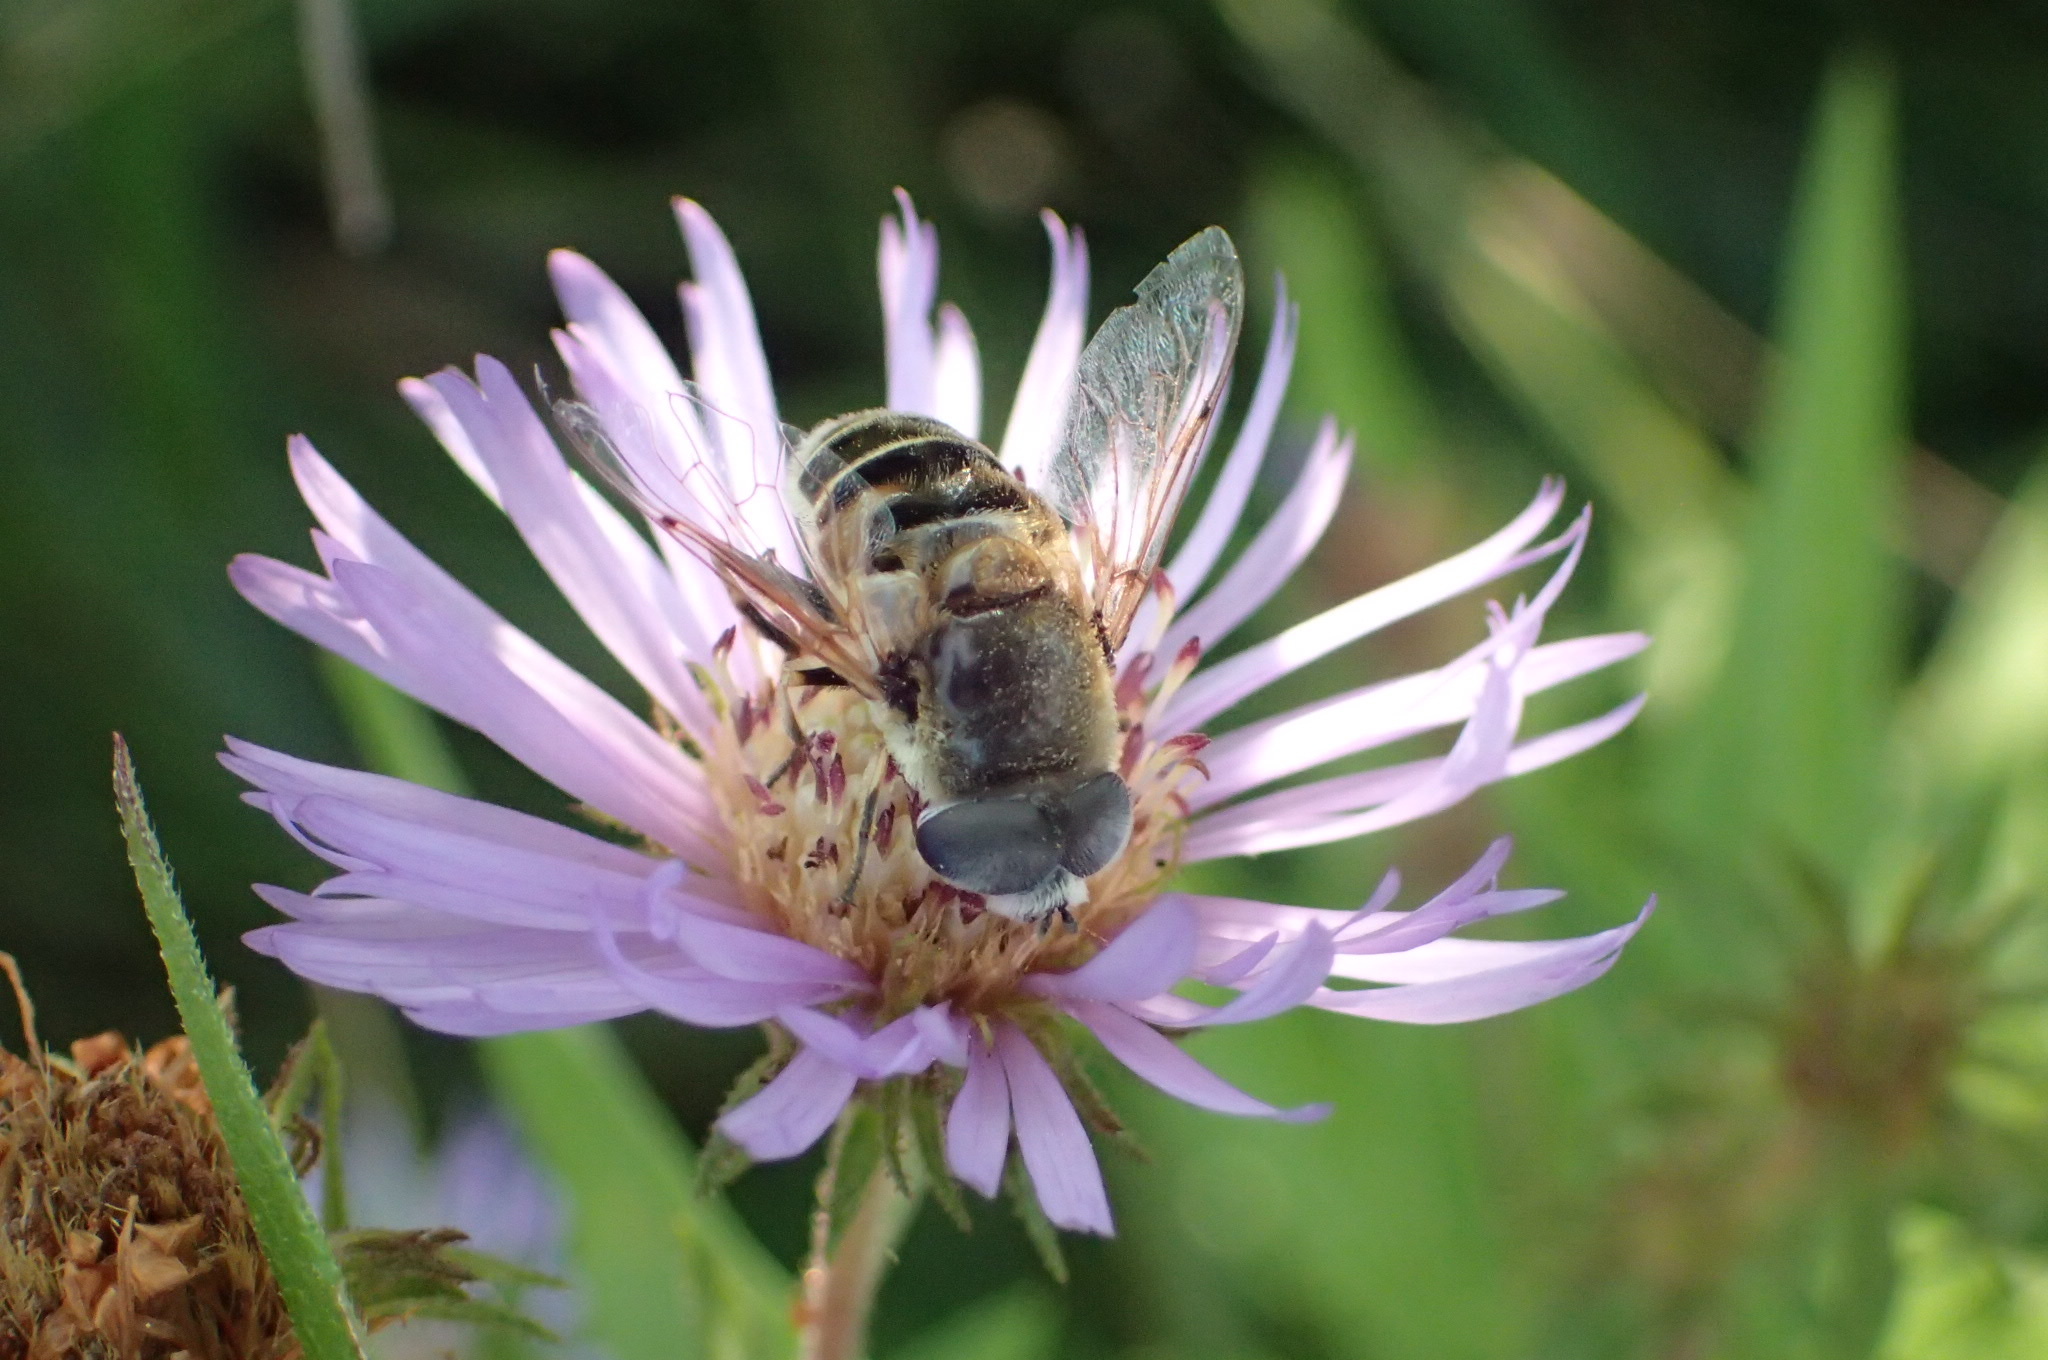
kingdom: Animalia
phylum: Arthropoda
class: Insecta
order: Diptera
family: Syrphidae
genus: Eristalis
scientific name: Eristalis stipator
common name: Yellow-shouldered drone fly
